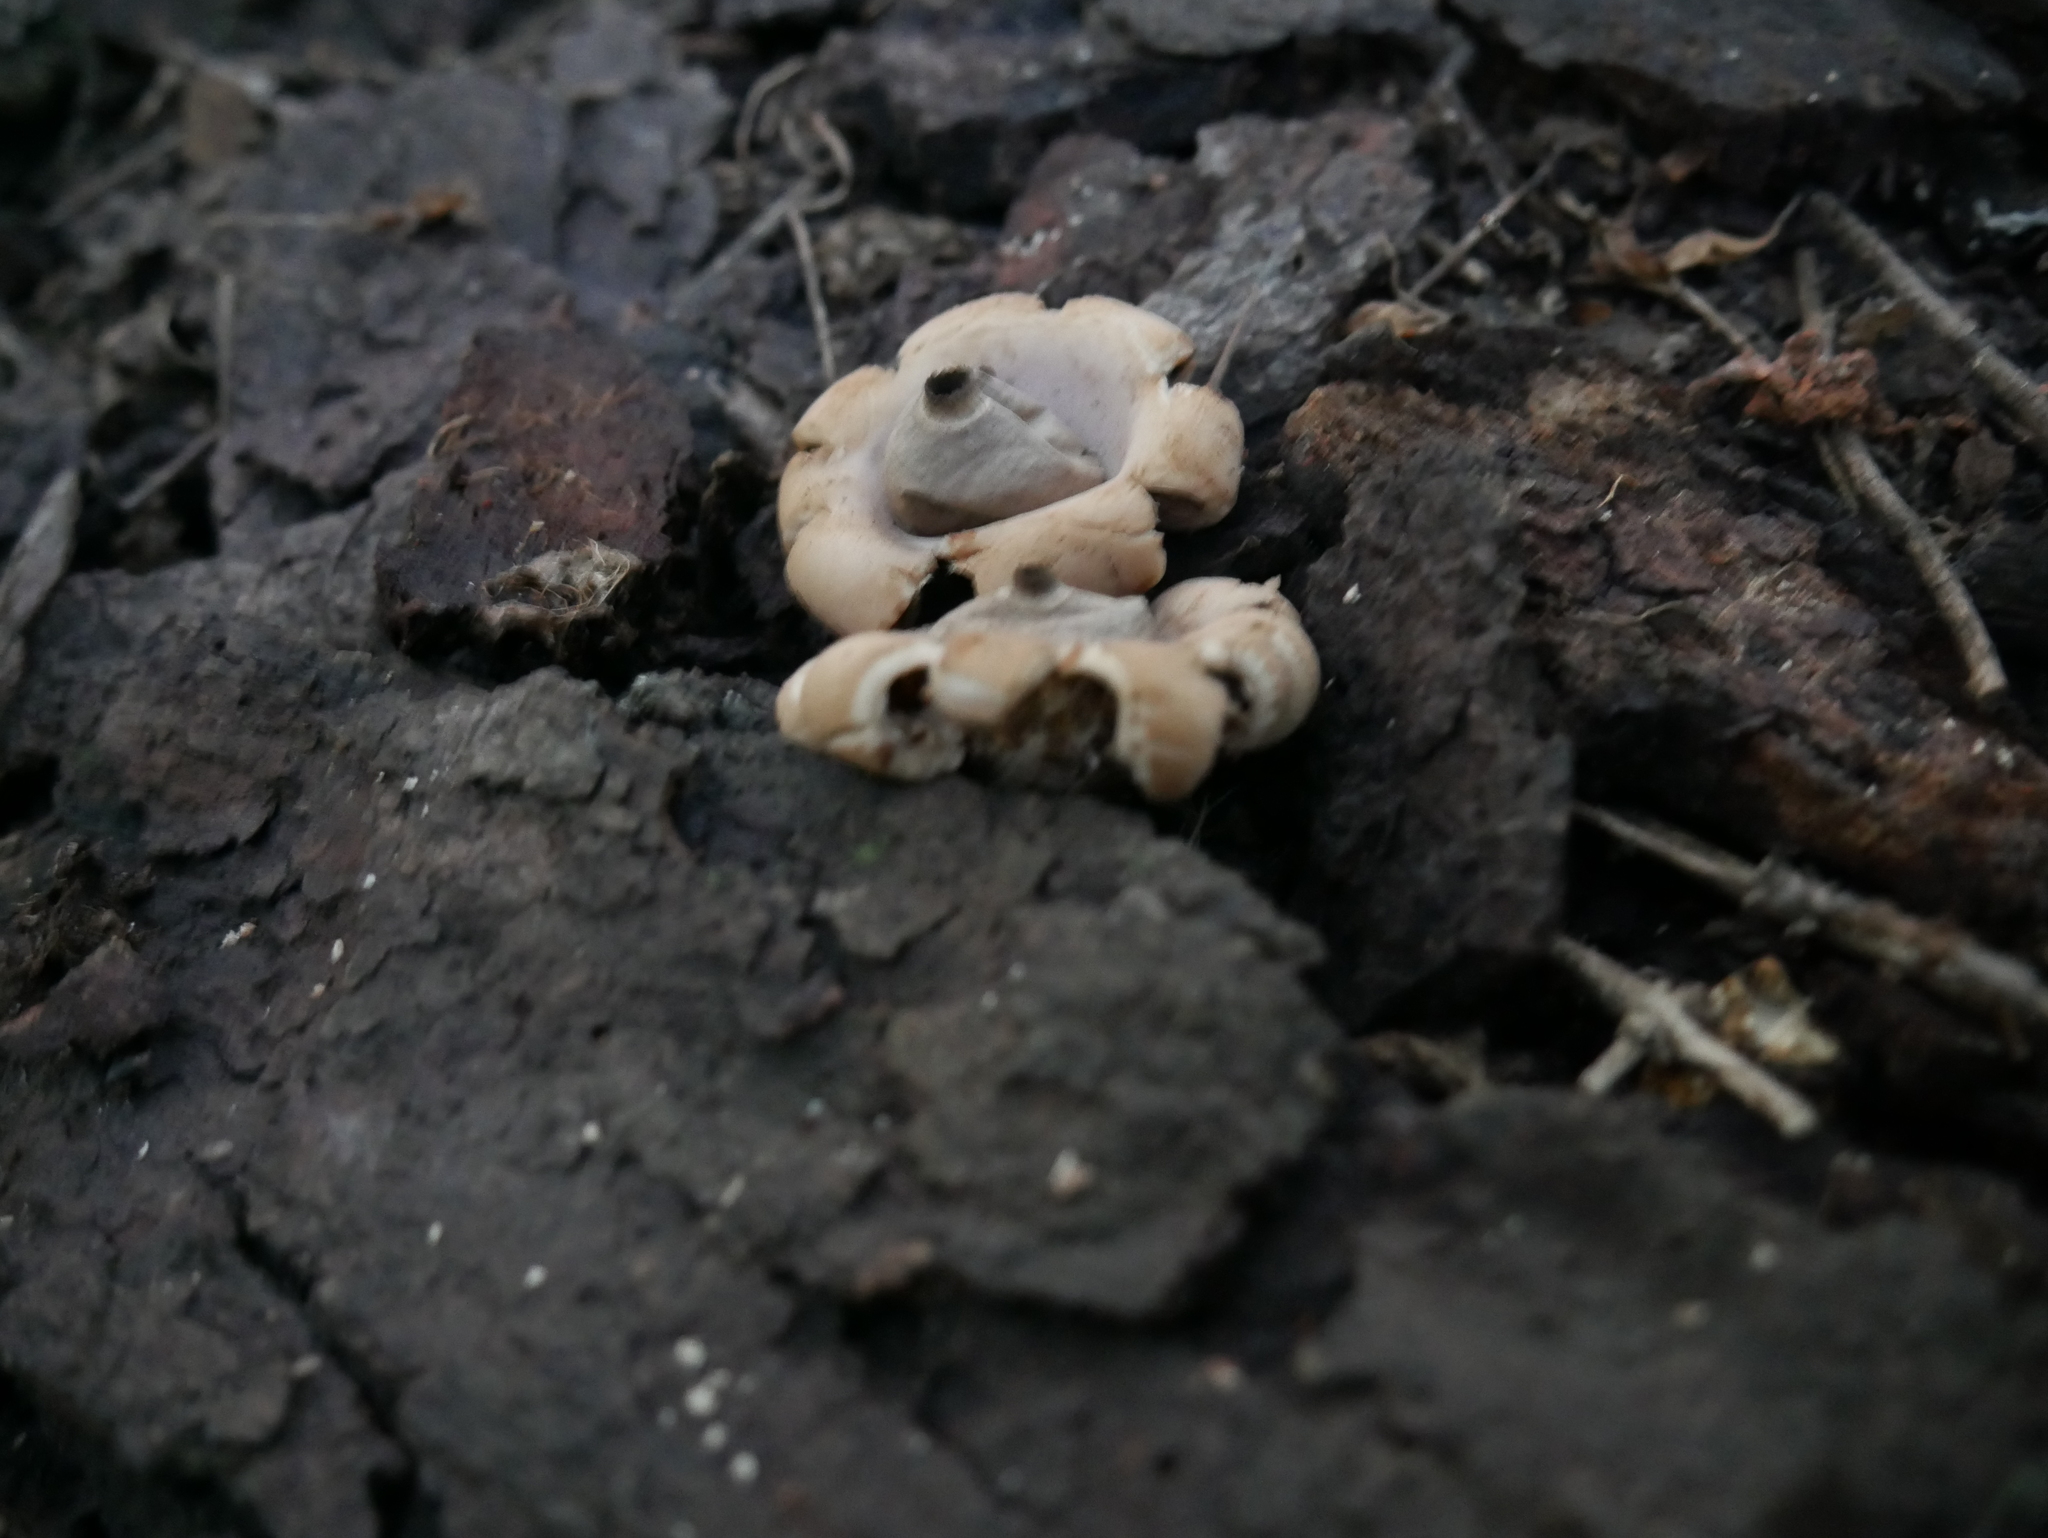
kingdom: Fungi
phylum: Basidiomycota
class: Agaricomycetes
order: Geastrales
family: Geastraceae
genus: Geastrum
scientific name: Geastrum saccatum
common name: Rounded earthstar
